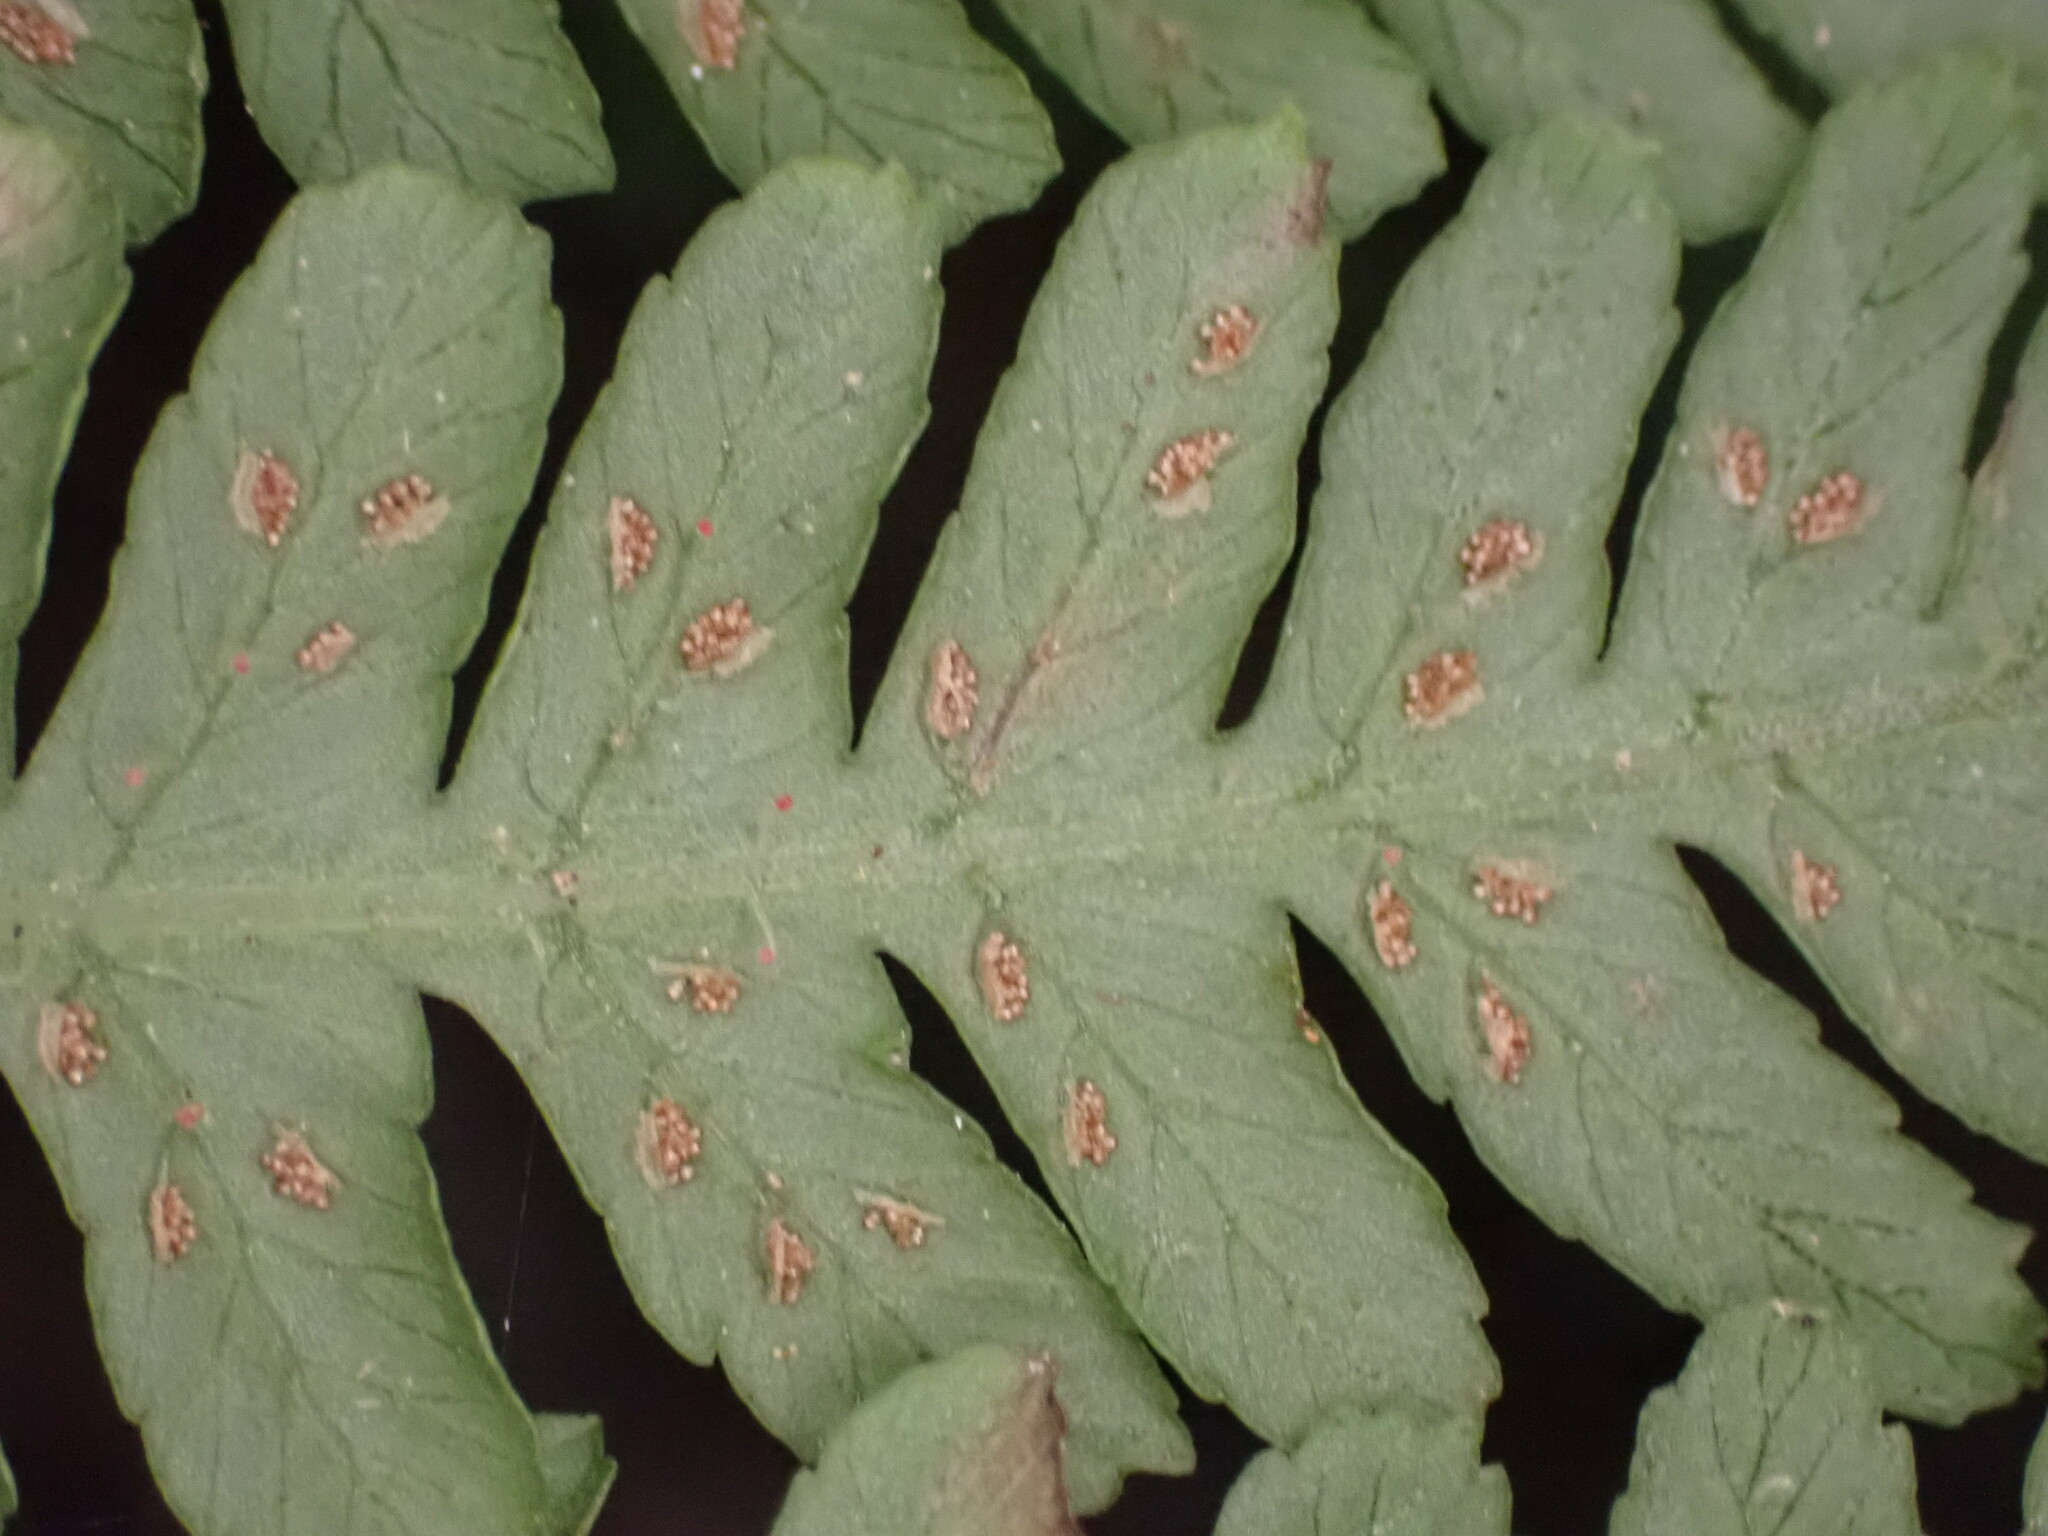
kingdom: Plantae
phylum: Tracheophyta
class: Polypodiopsida
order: Polypodiales
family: Athyriaceae
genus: Deparia
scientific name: Deparia petersenii
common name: Japanese false spleenwort
